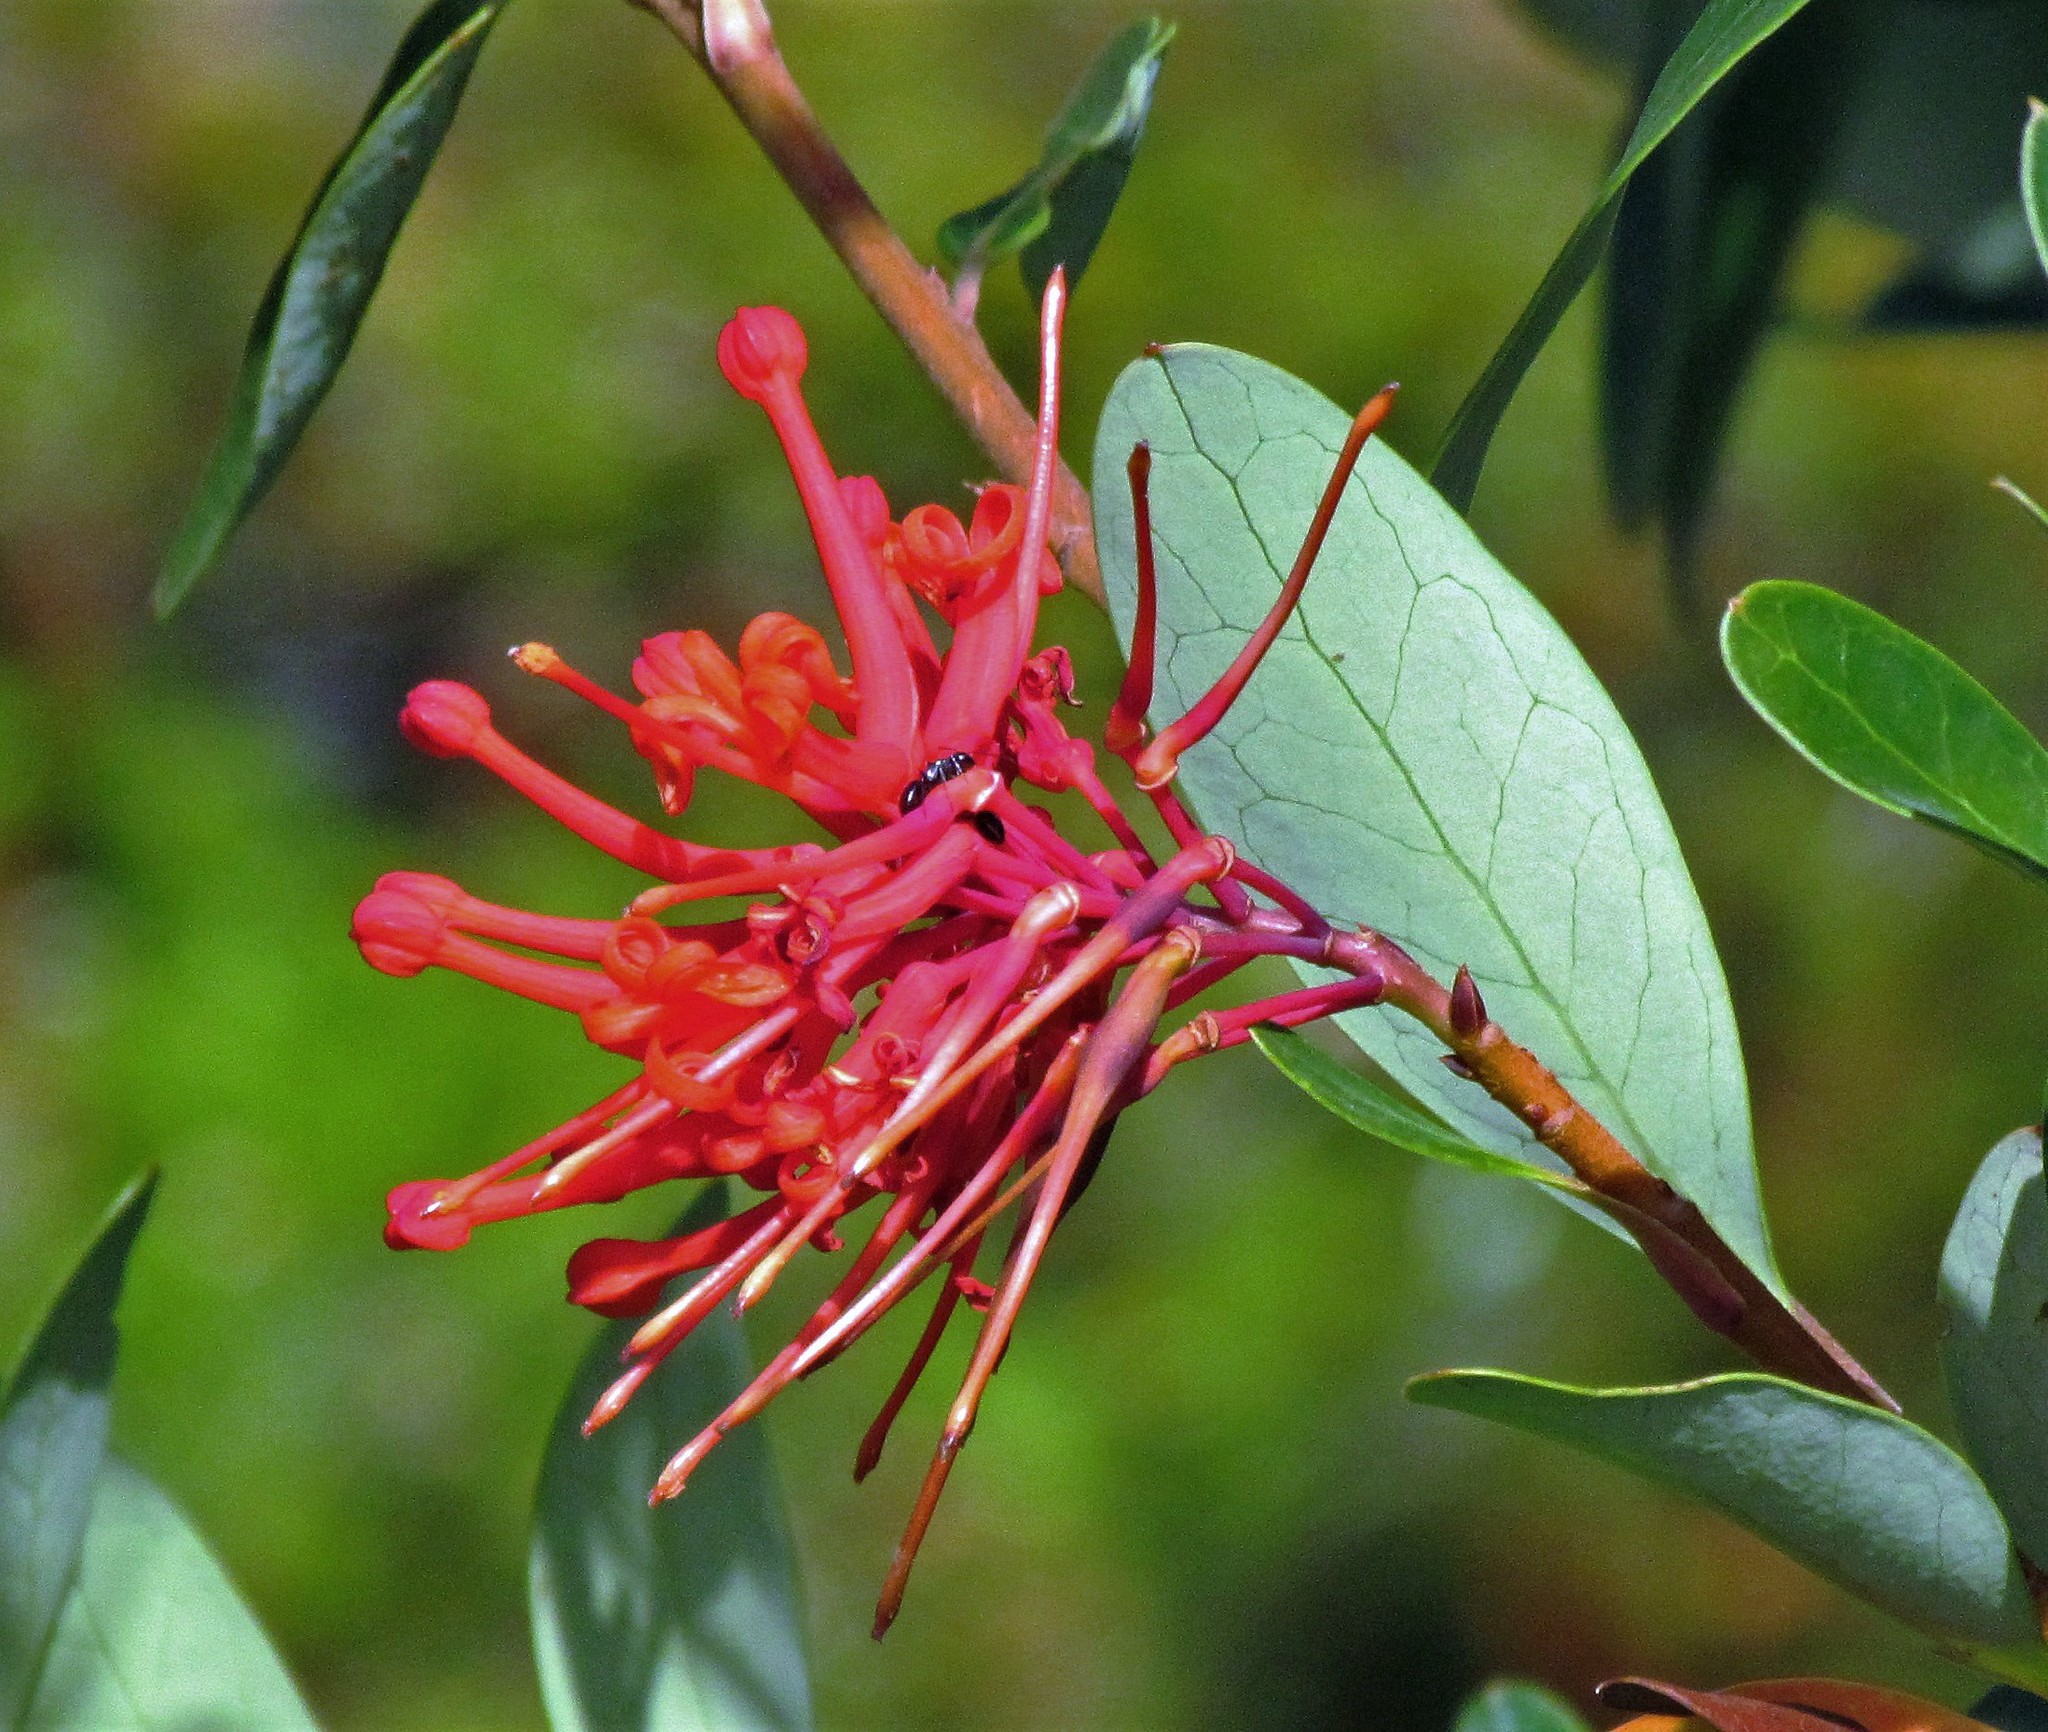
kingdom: Plantae
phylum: Tracheophyta
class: Magnoliopsida
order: Proteales
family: Proteaceae
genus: Embothrium
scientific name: Embothrium coccineum
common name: Chilean firebush
